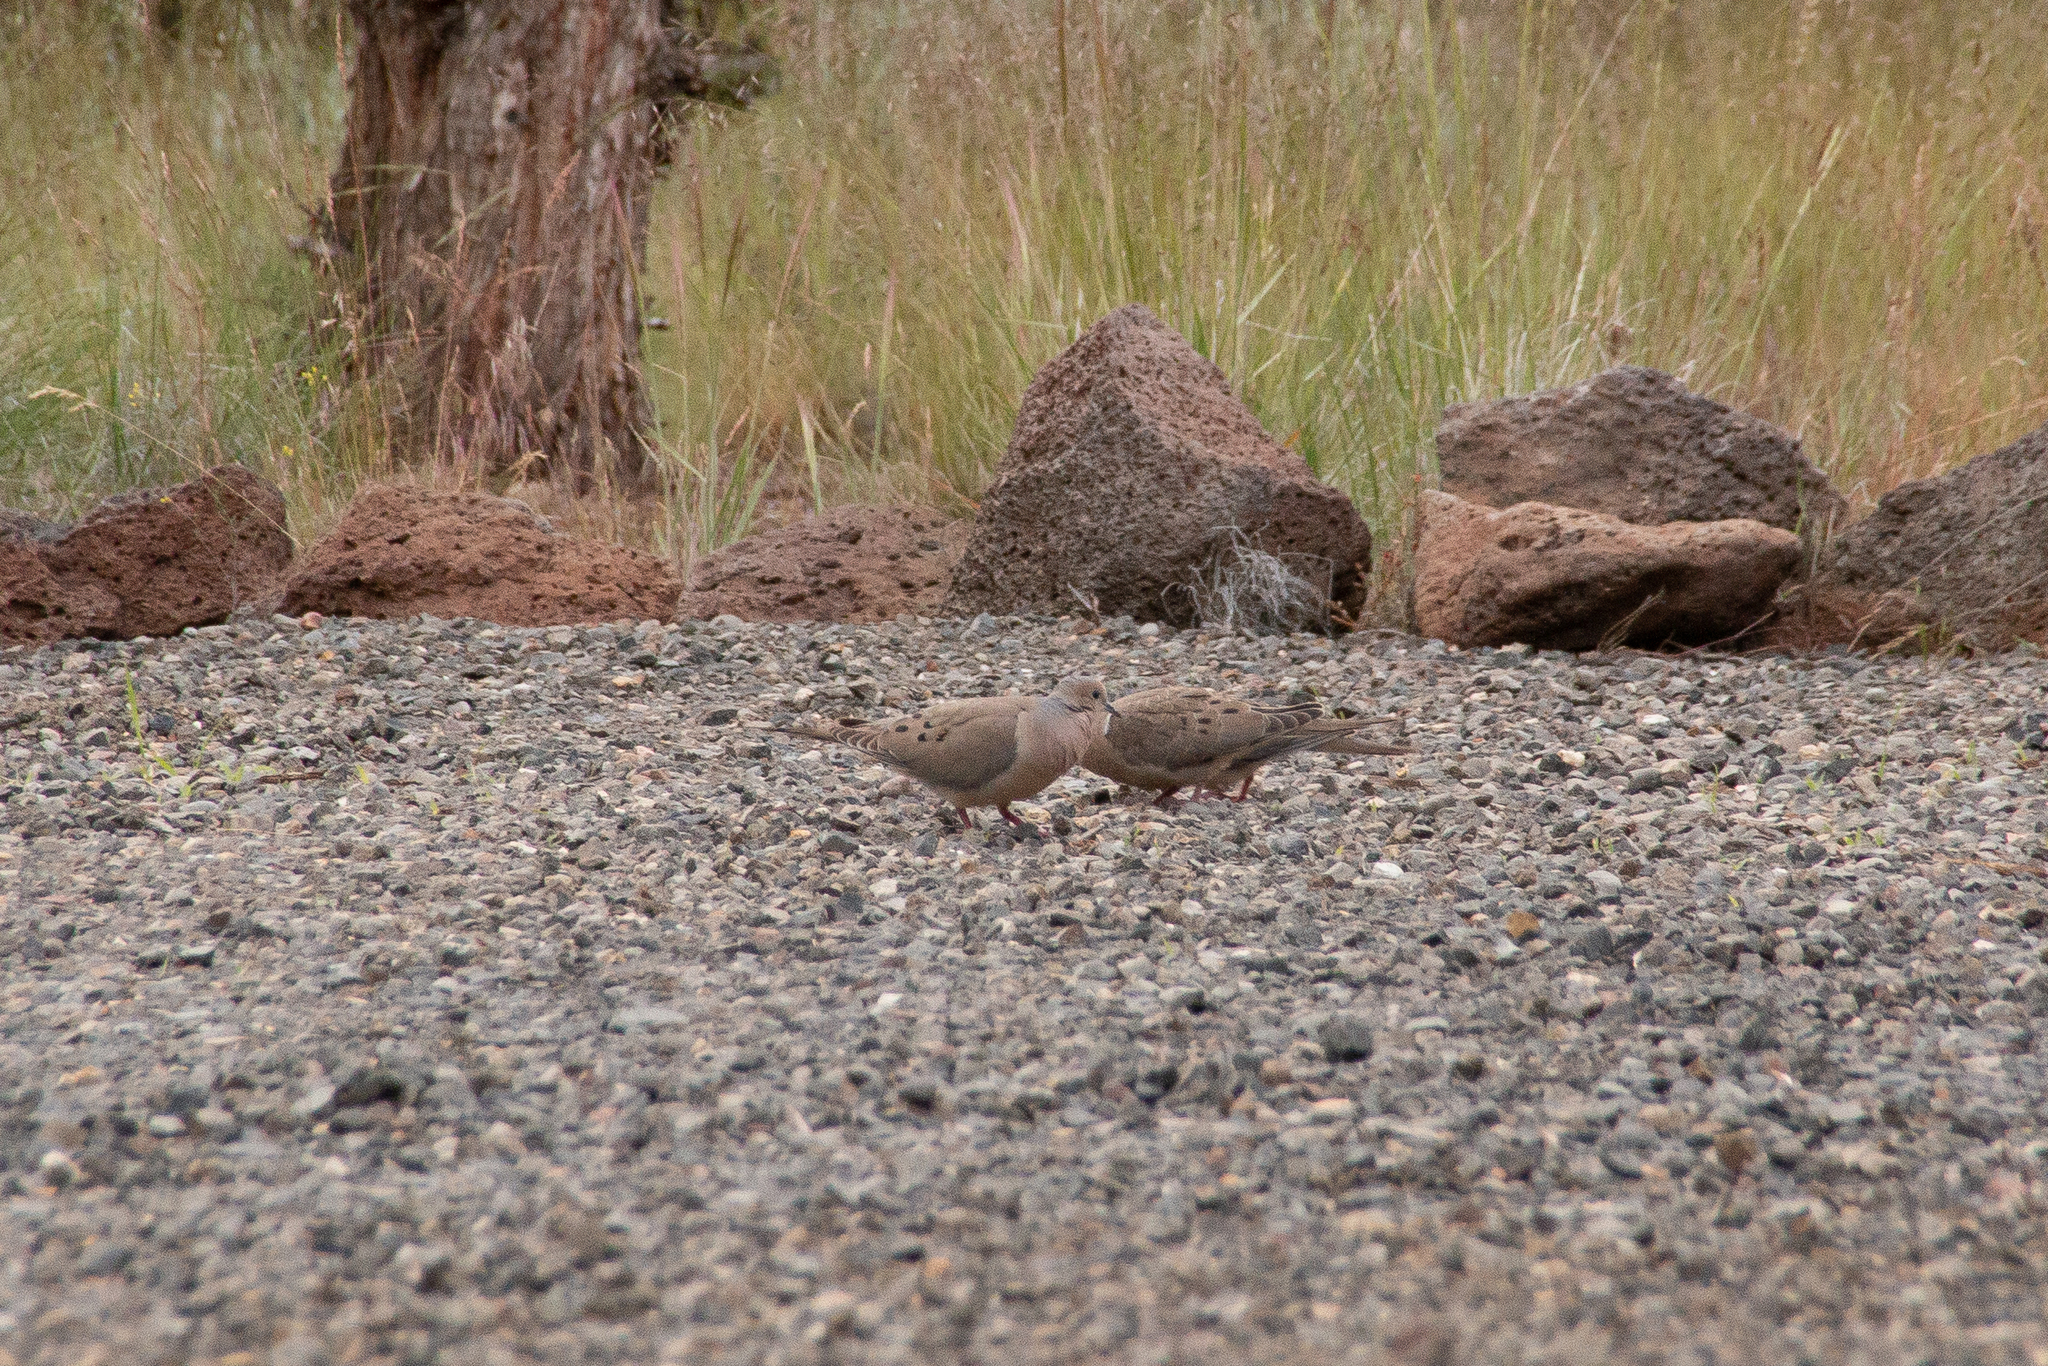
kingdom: Animalia
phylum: Chordata
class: Aves
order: Columbiformes
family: Columbidae
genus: Zenaida
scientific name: Zenaida macroura
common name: Mourning dove
